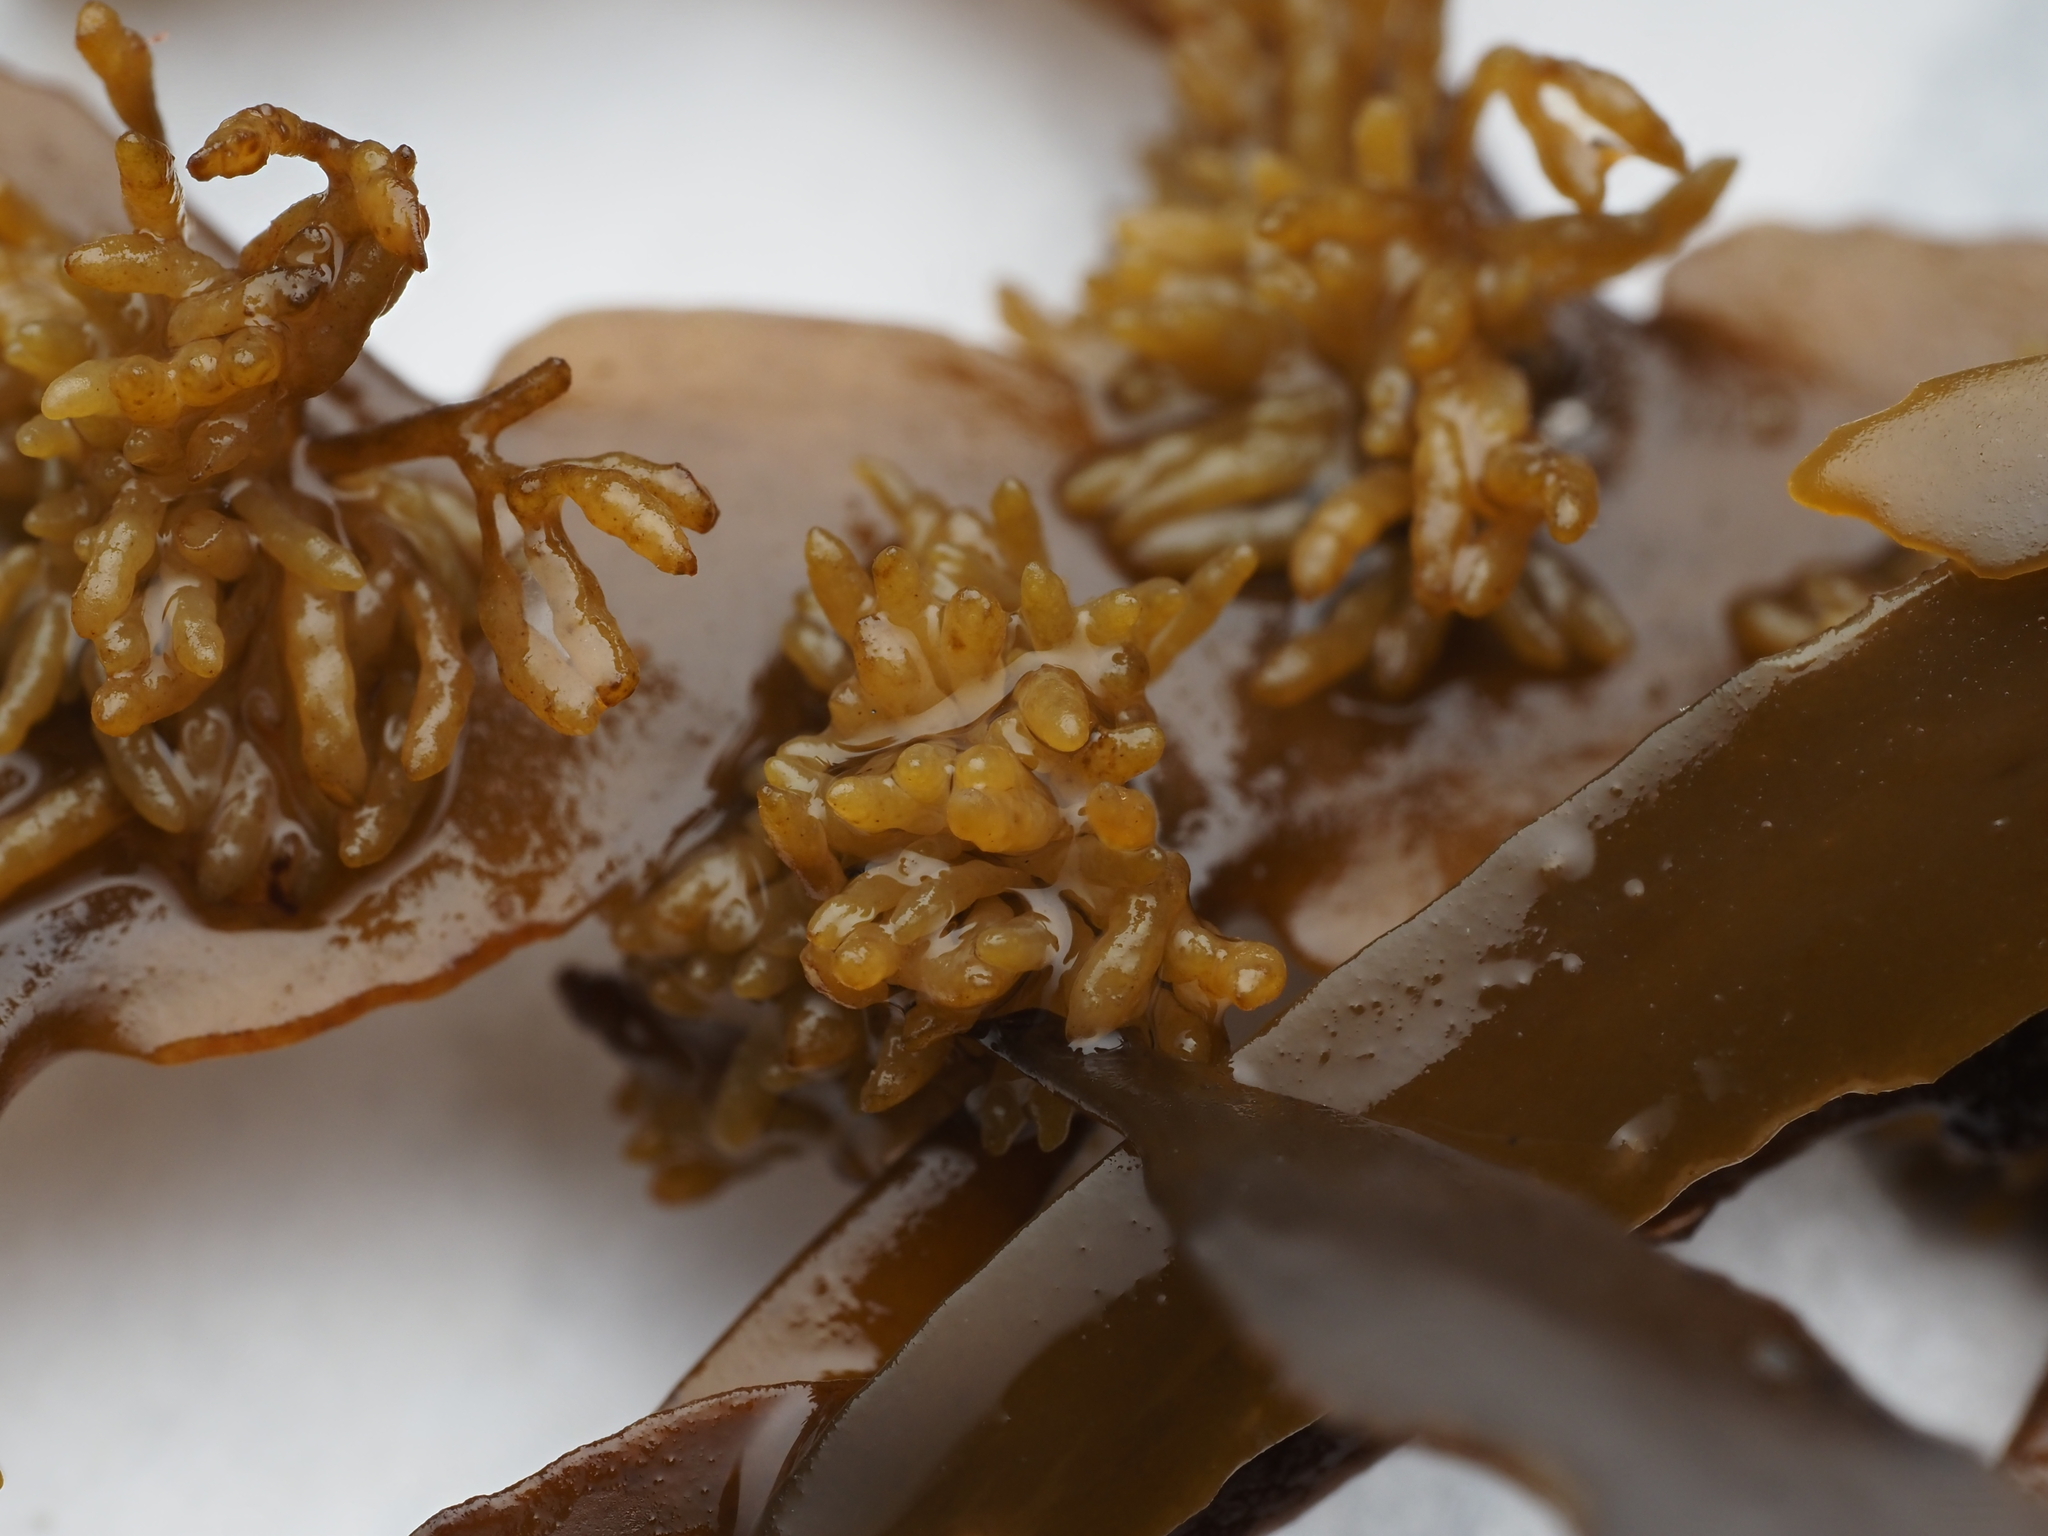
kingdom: Chromista
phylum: Ochrophyta
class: Phaeophyceae
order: Fucales
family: Sargassaceae
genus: Carpophyllum
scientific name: Carpophyllum maschalocarpum
